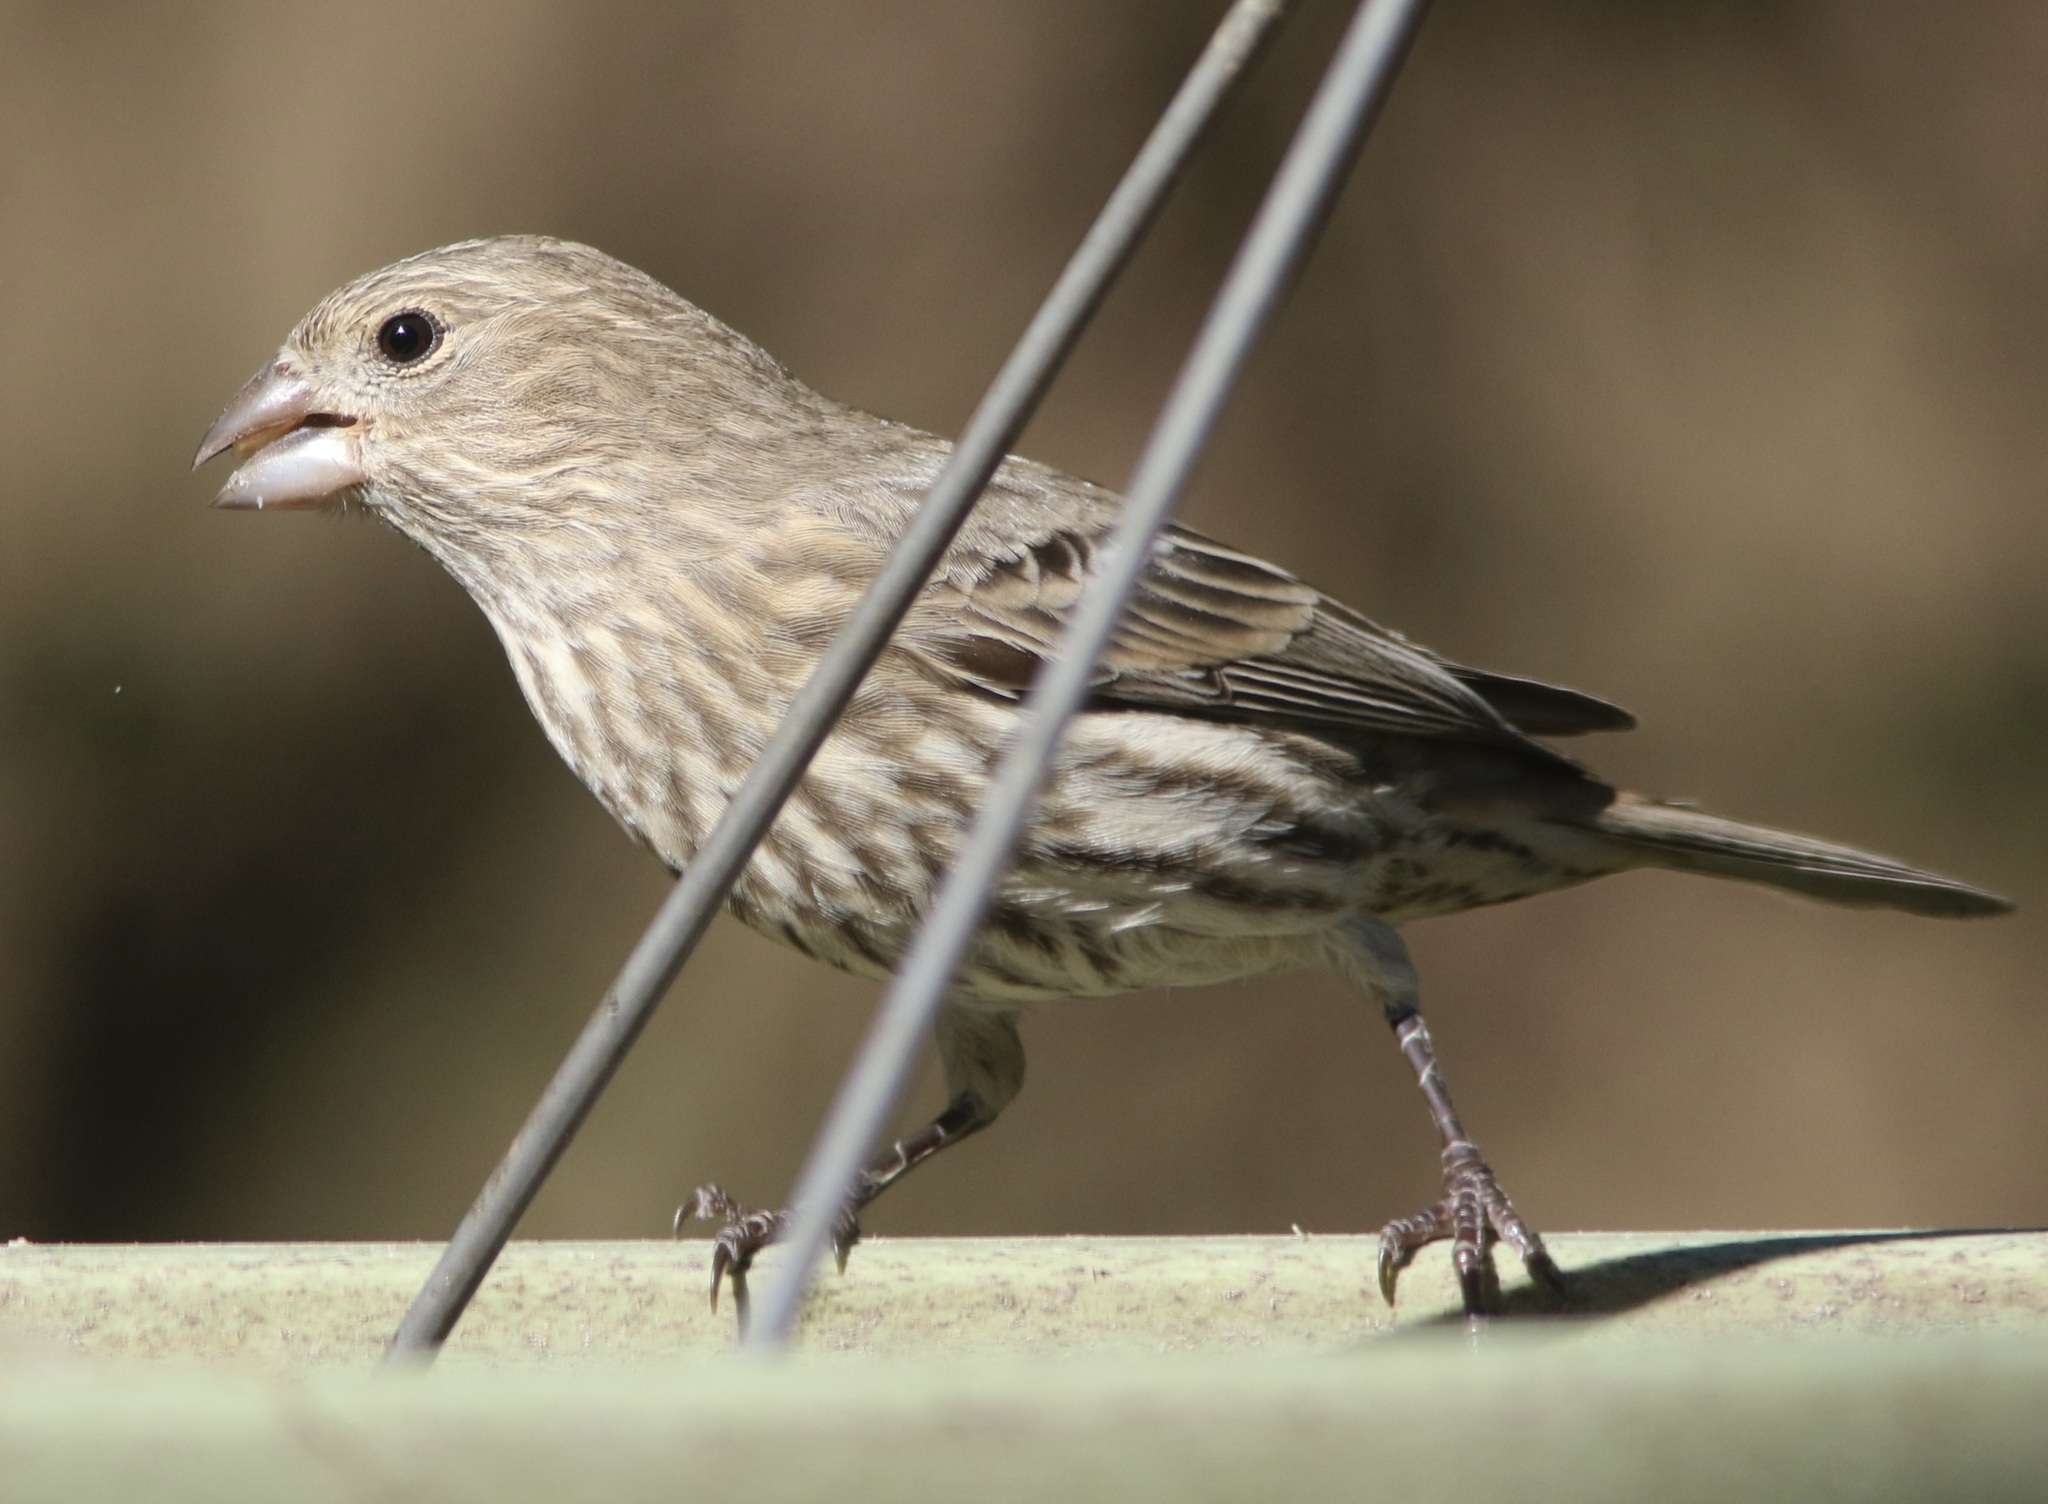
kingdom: Animalia
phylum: Chordata
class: Aves
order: Passeriformes
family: Fringillidae
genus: Haemorhous
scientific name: Haemorhous mexicanus
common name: House finch
